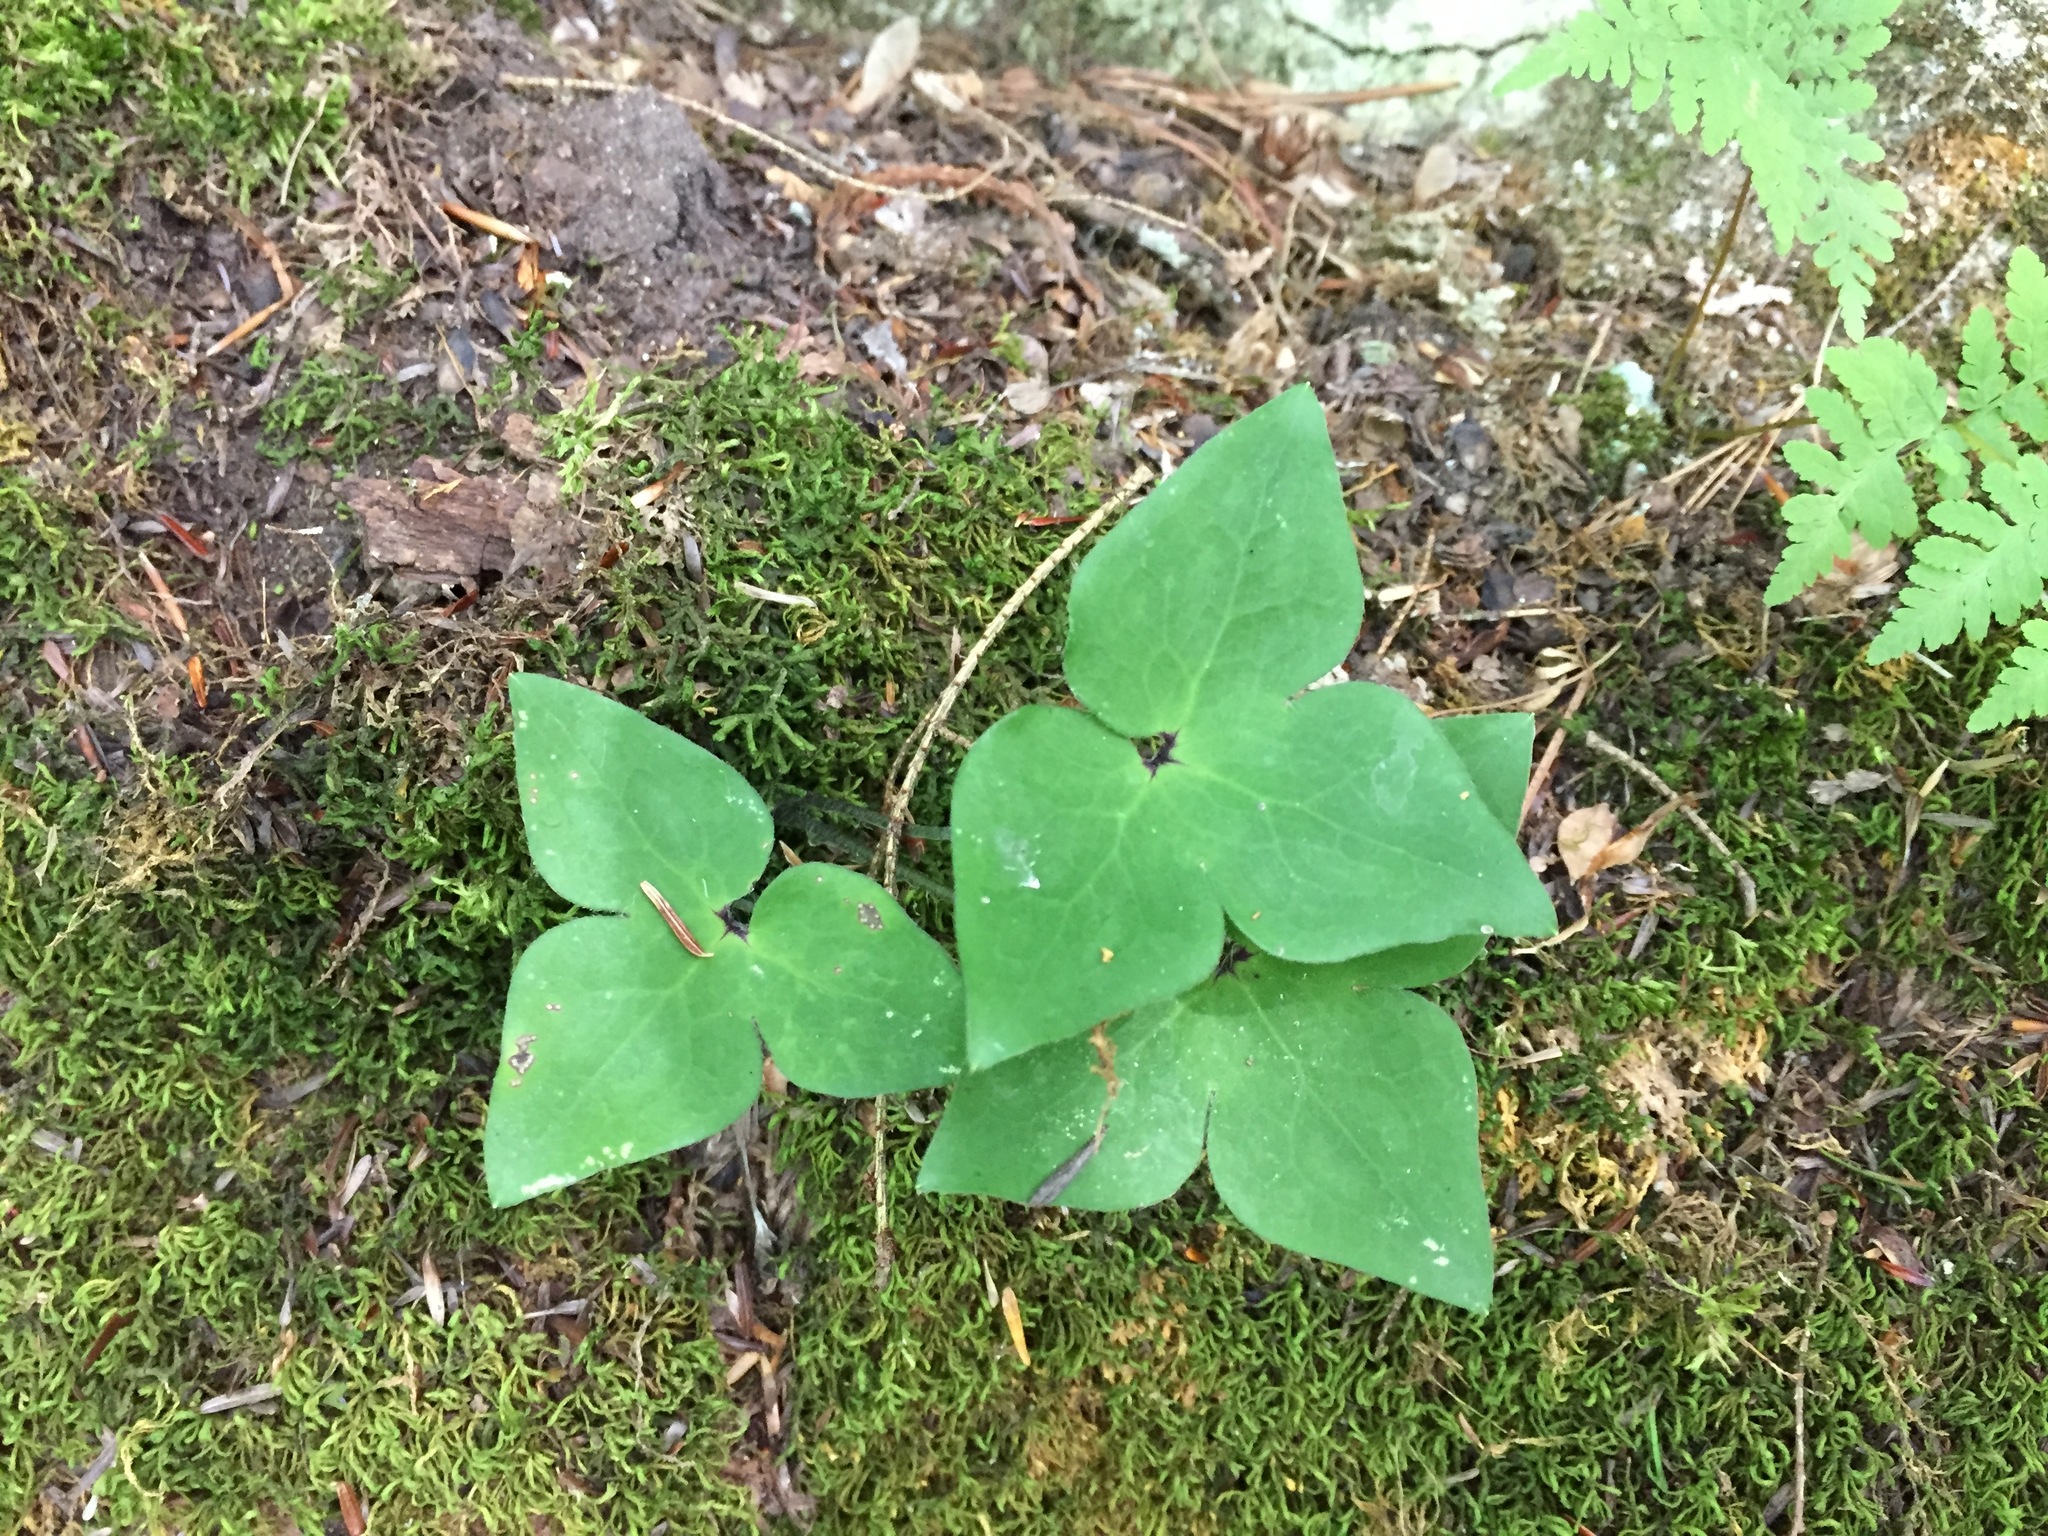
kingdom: Plantae
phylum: Tracheophyta
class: Magnoliopsida
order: Ranunculales
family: Ranunculaceae
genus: Hepatica
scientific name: Hepatica acutiloba
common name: Sharp-lobed hepatica
